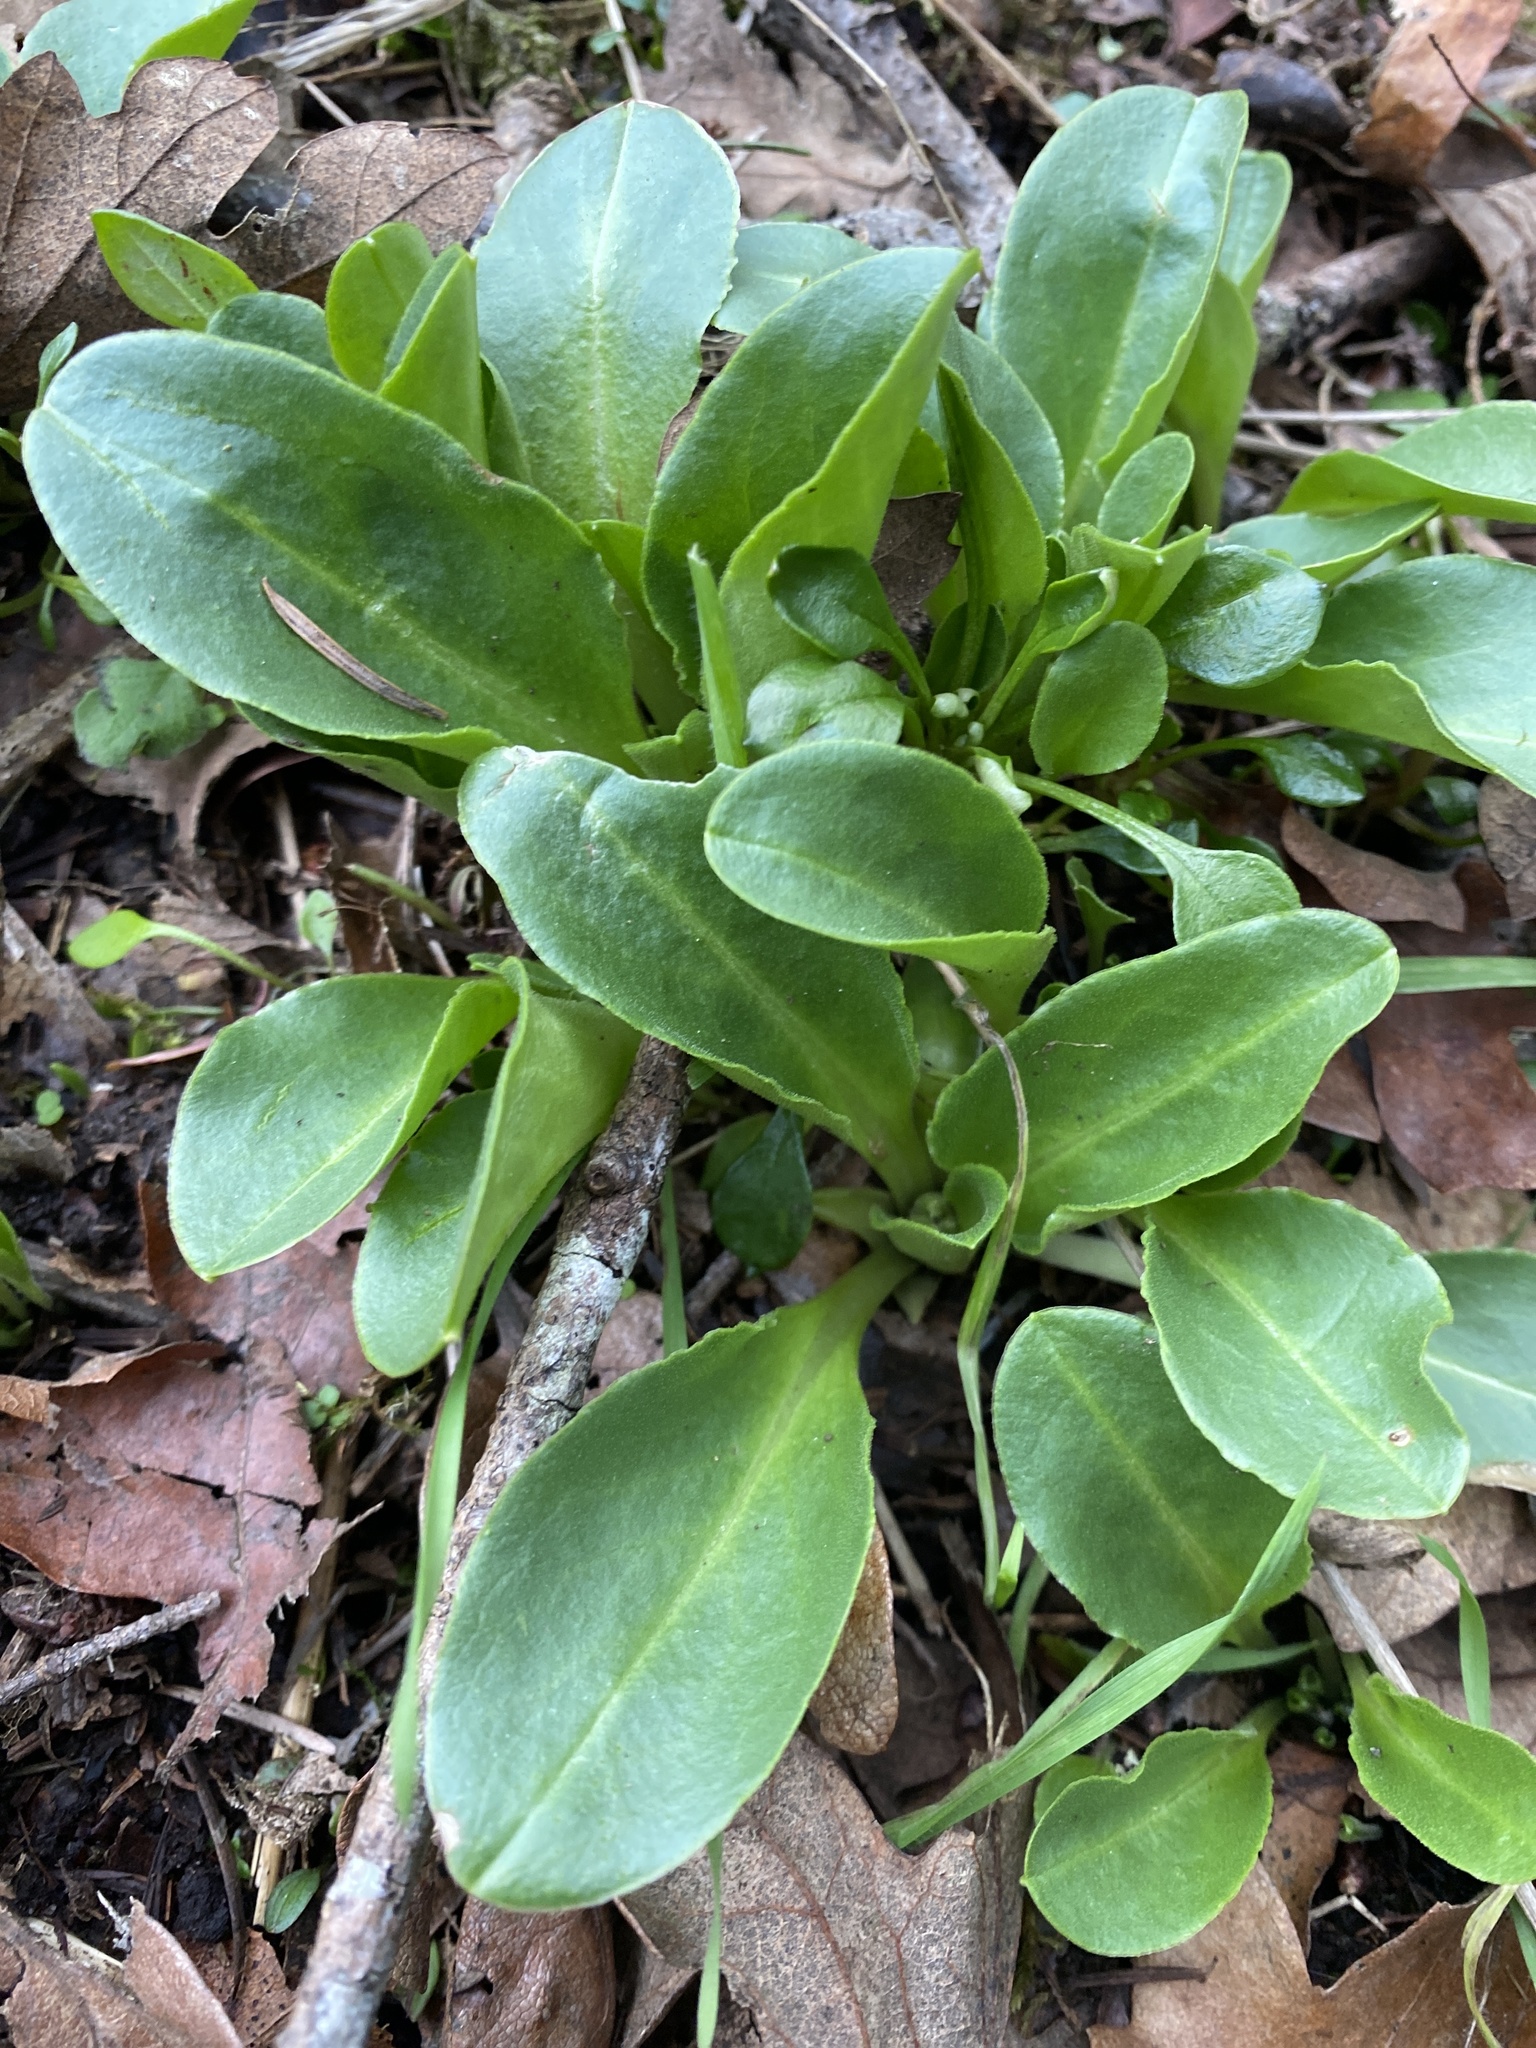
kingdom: Plantae
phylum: Tracheophyta
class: Magnoliopsida
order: Ericales
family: Primulaceae
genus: Dodecatheon
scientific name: Dodecatheon hendersonii
